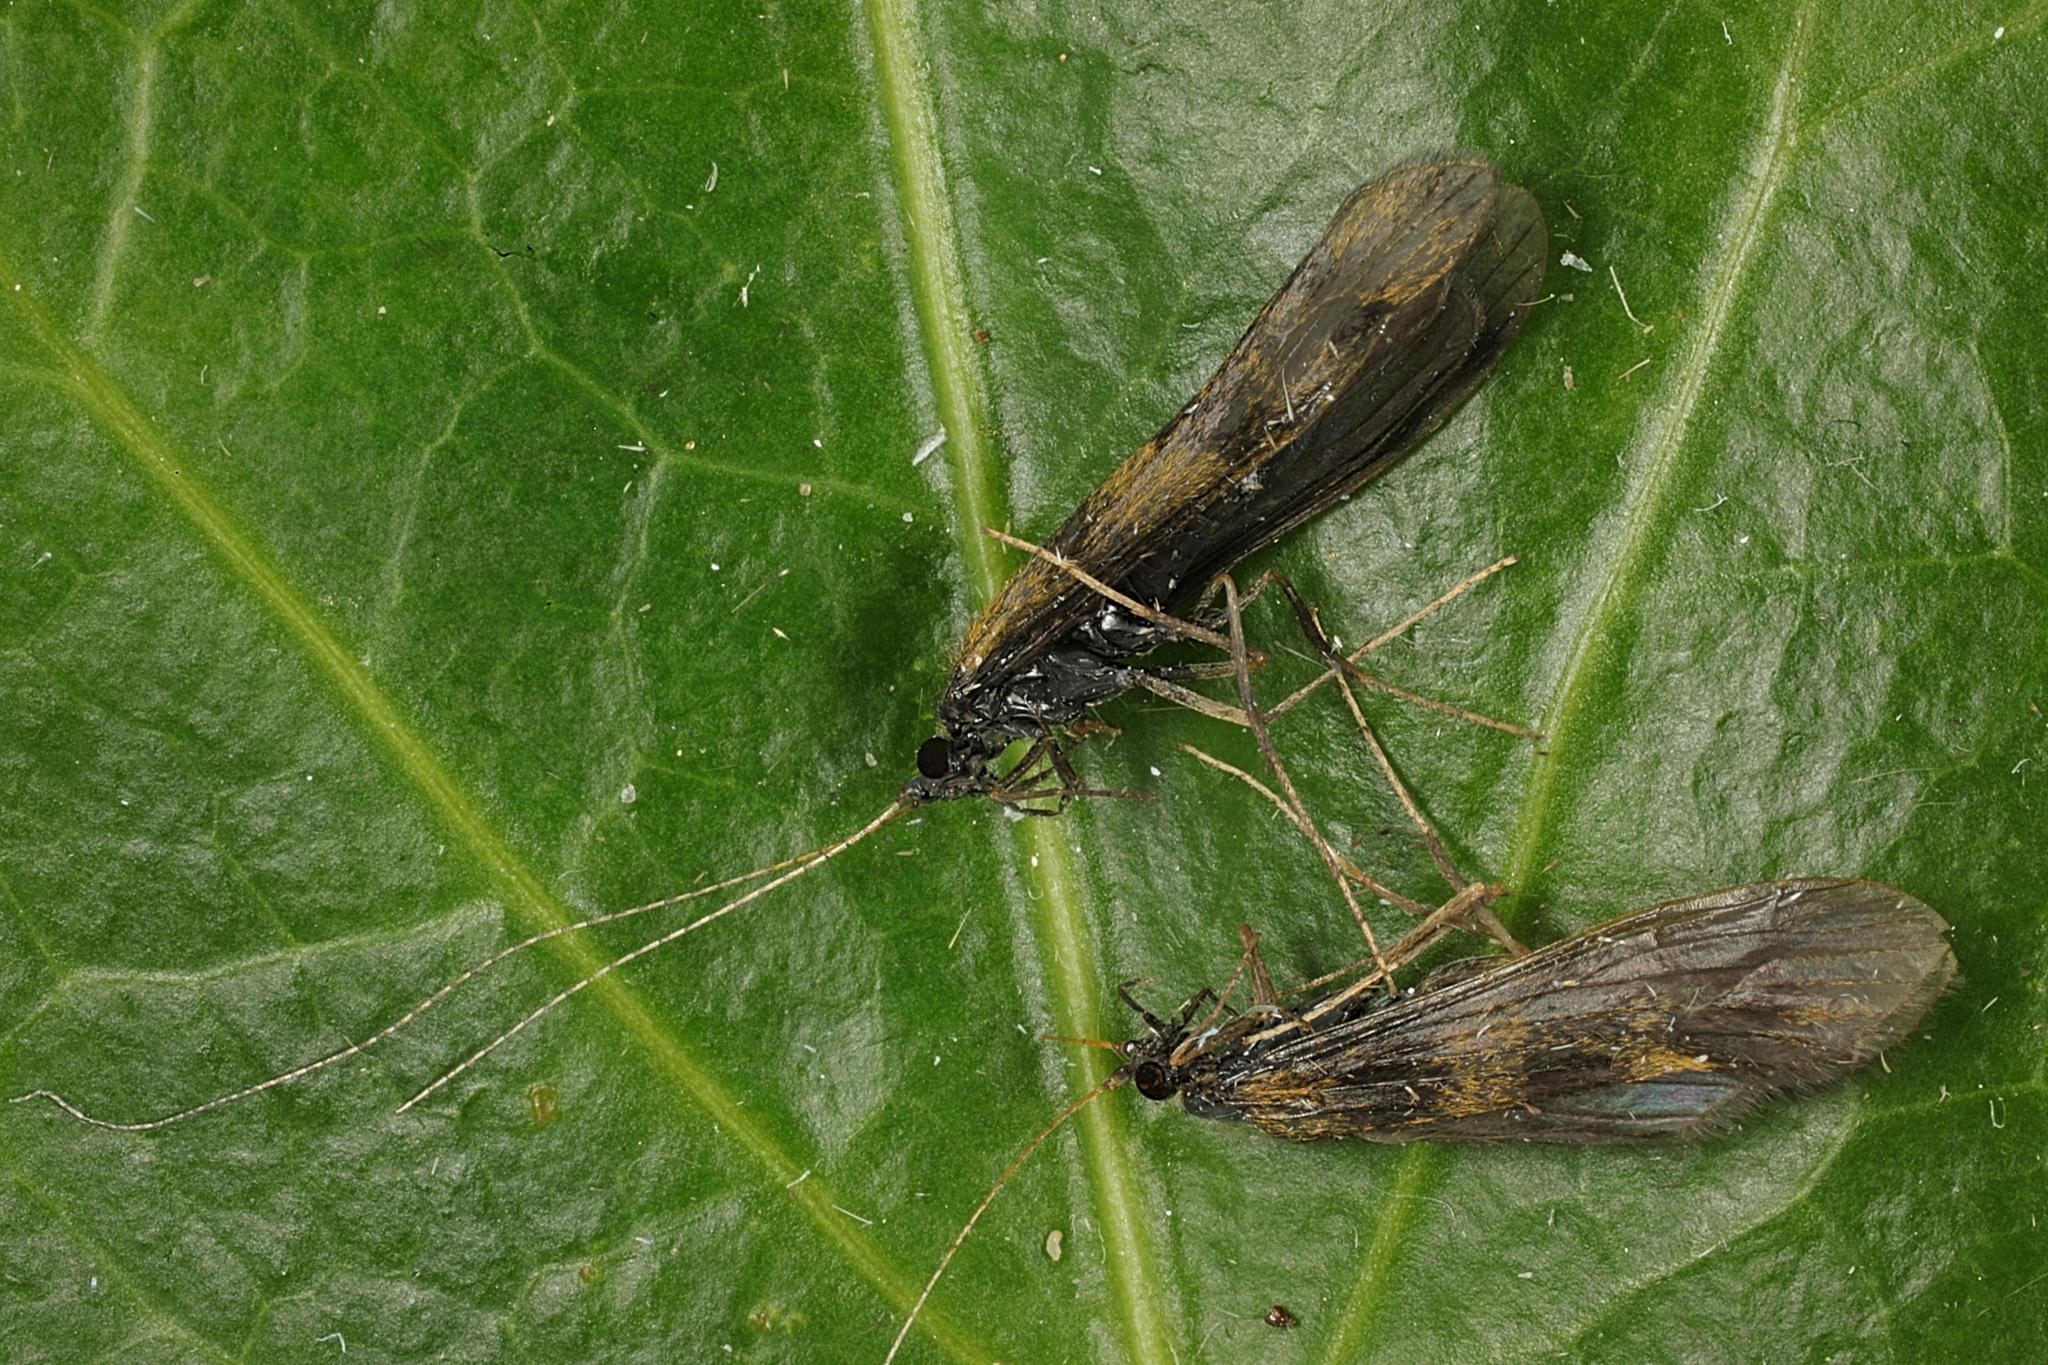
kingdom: Animalia
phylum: Arthropoda
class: Insecta
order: Trichoptera
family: Leptoceridae
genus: Mystacides
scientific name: Mystacides longicornis
